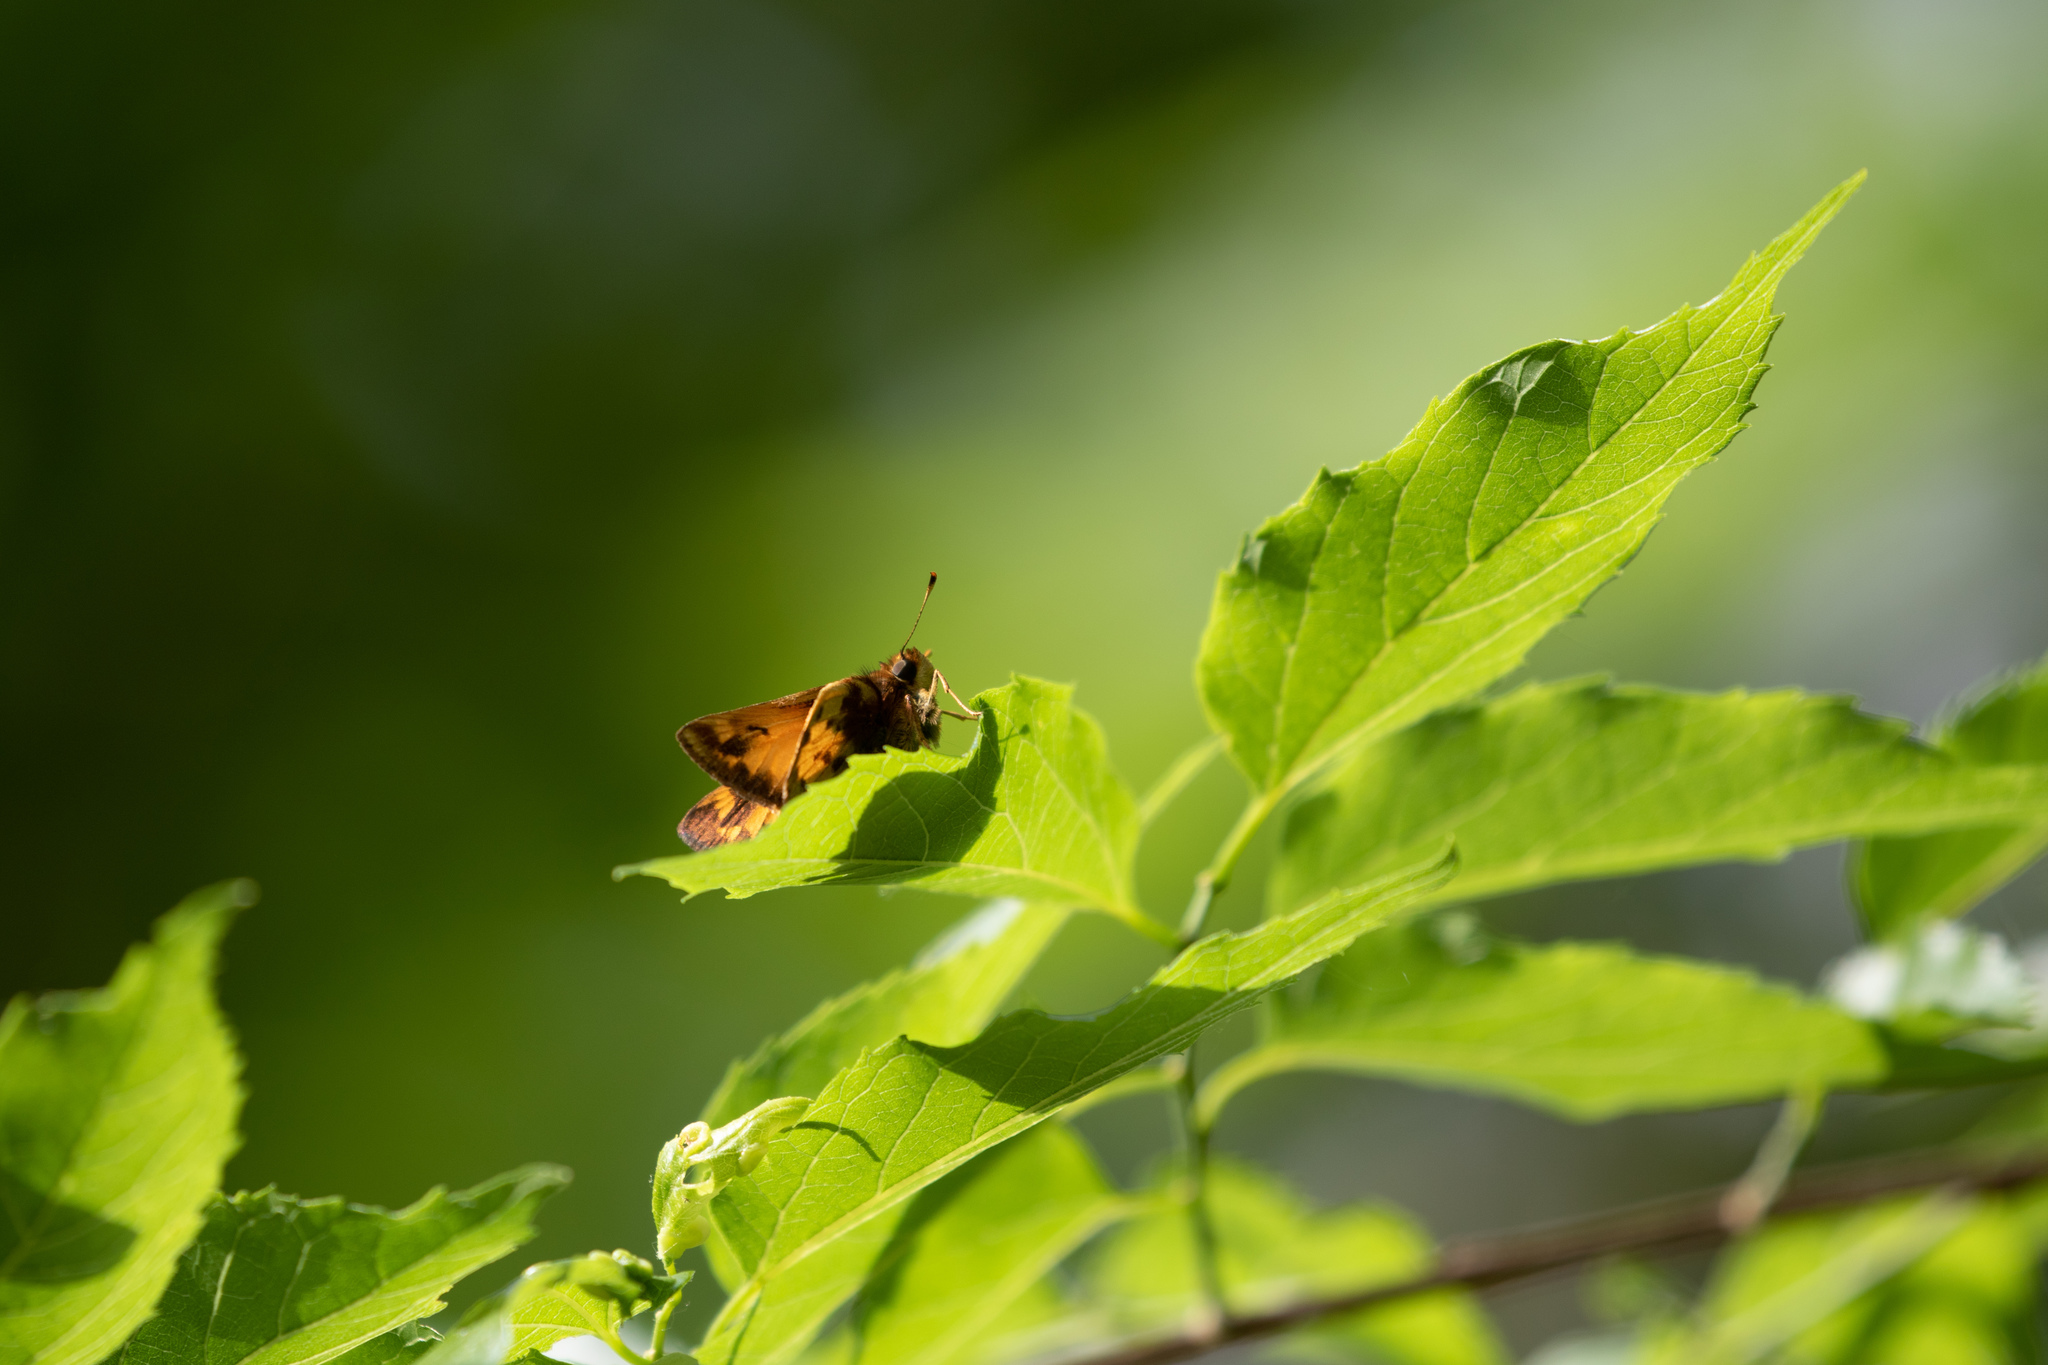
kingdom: Animalia
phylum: Arthropoda
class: Insecta
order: Lepidoptera
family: Hesperiidae
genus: Lon
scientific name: Lon zabulon
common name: Zabulon skipper
